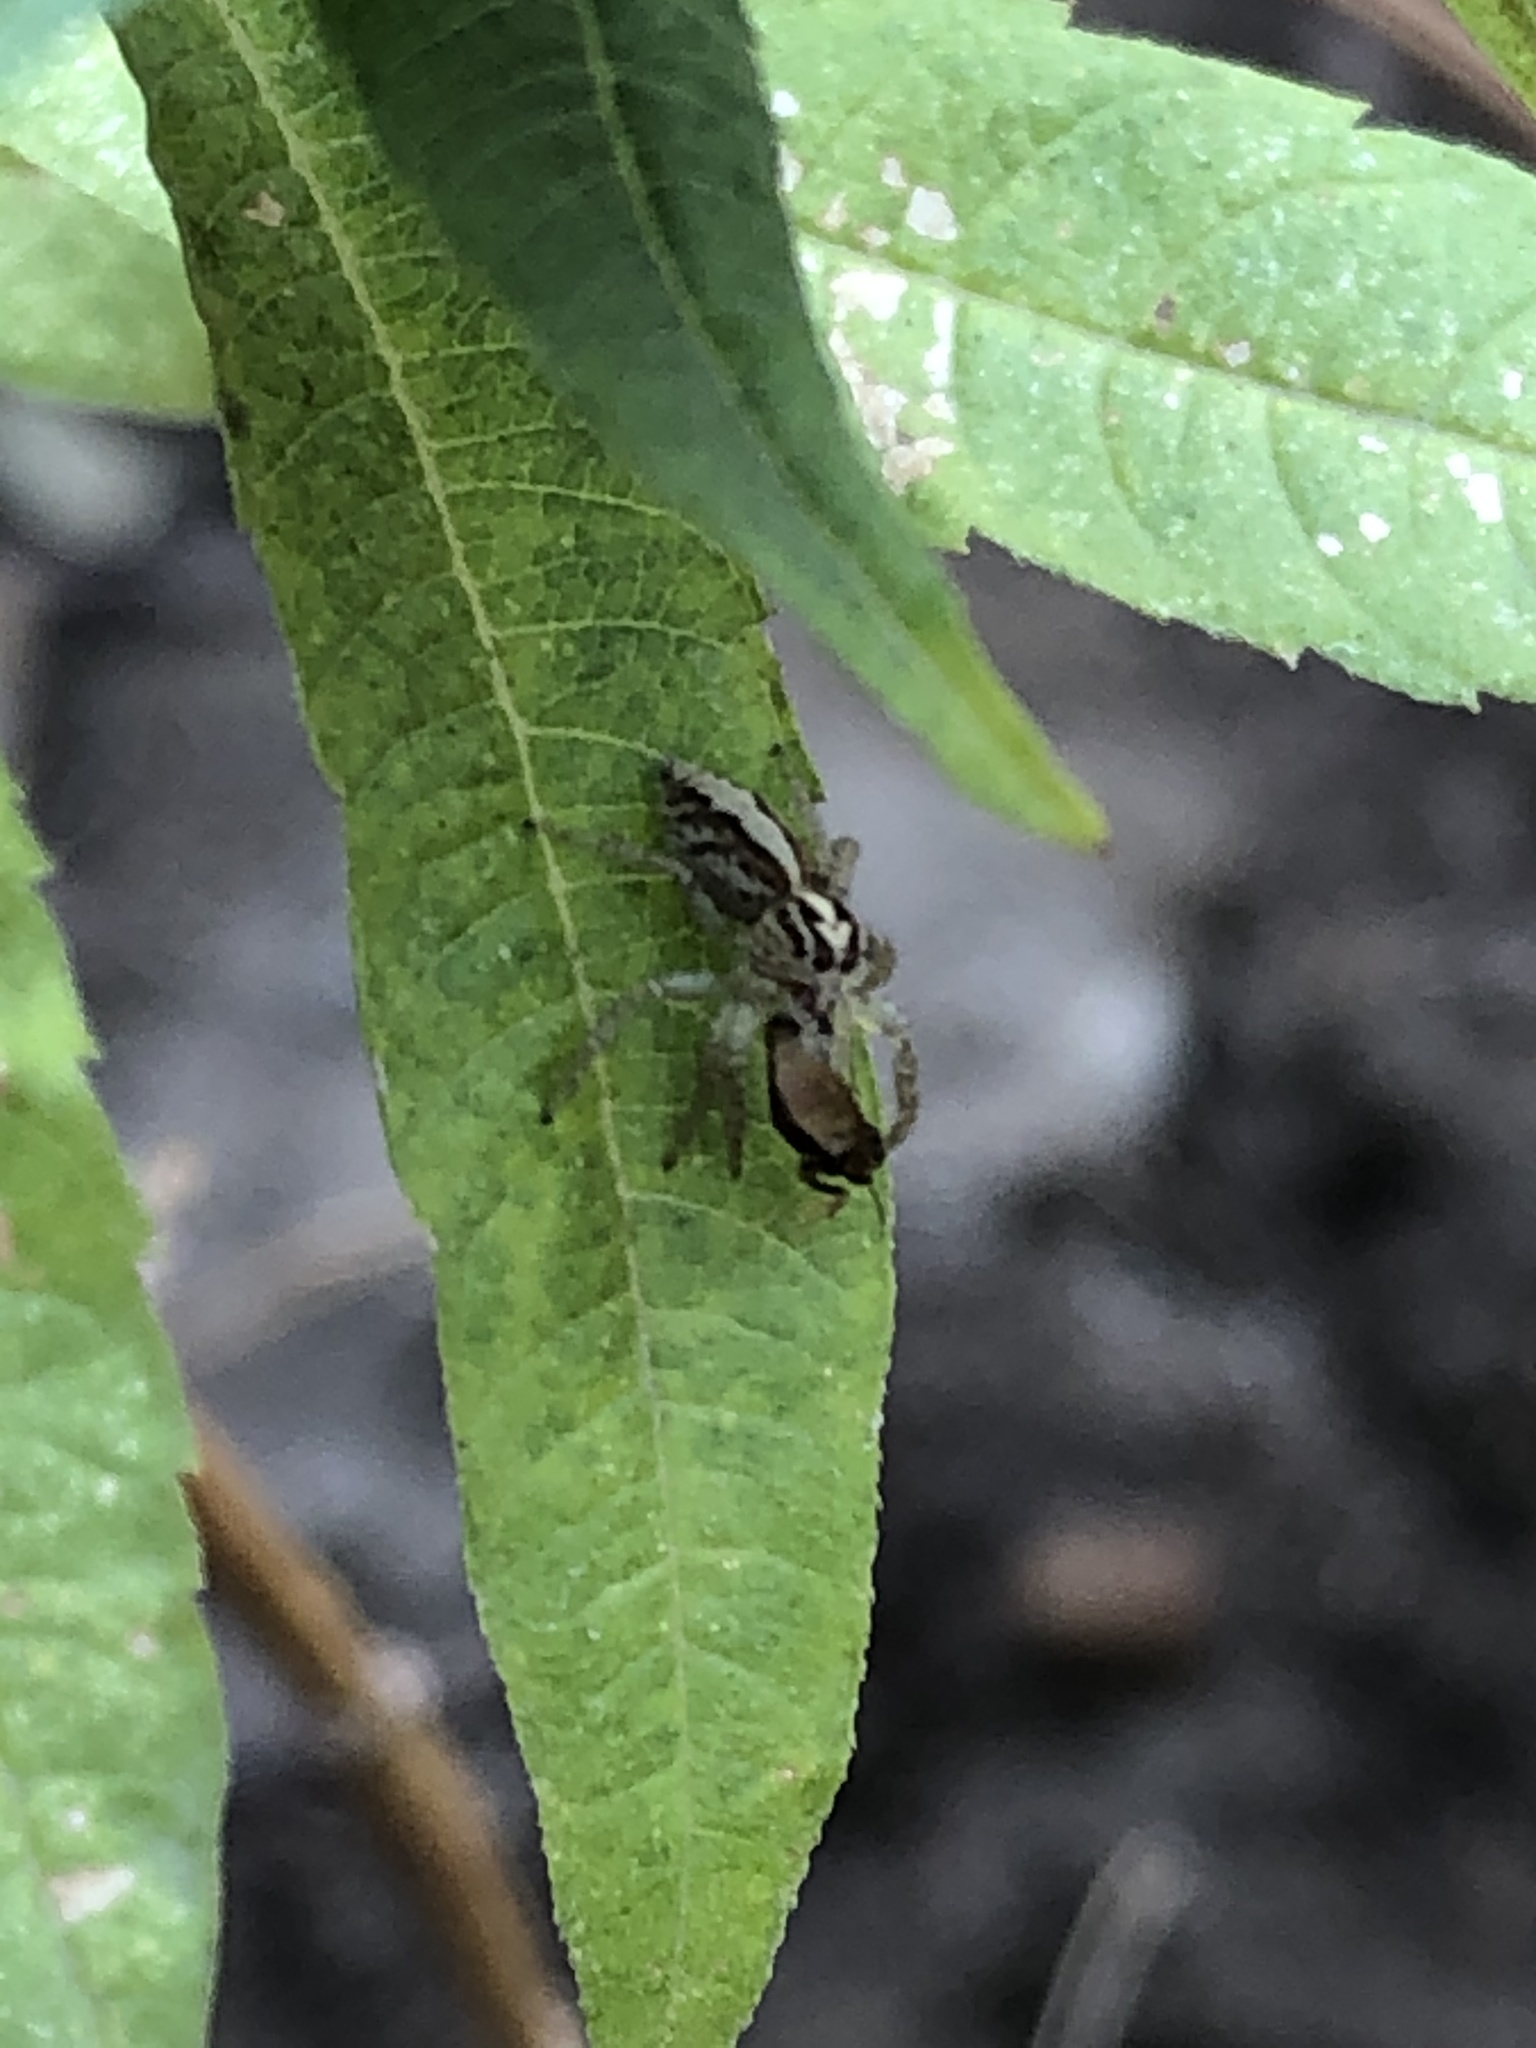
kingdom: Animalia
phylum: Arthropoda
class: Arachnida
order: Araneae
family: Salticidae
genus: Frigga
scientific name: Frigga crocuta
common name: Jumping spiders
